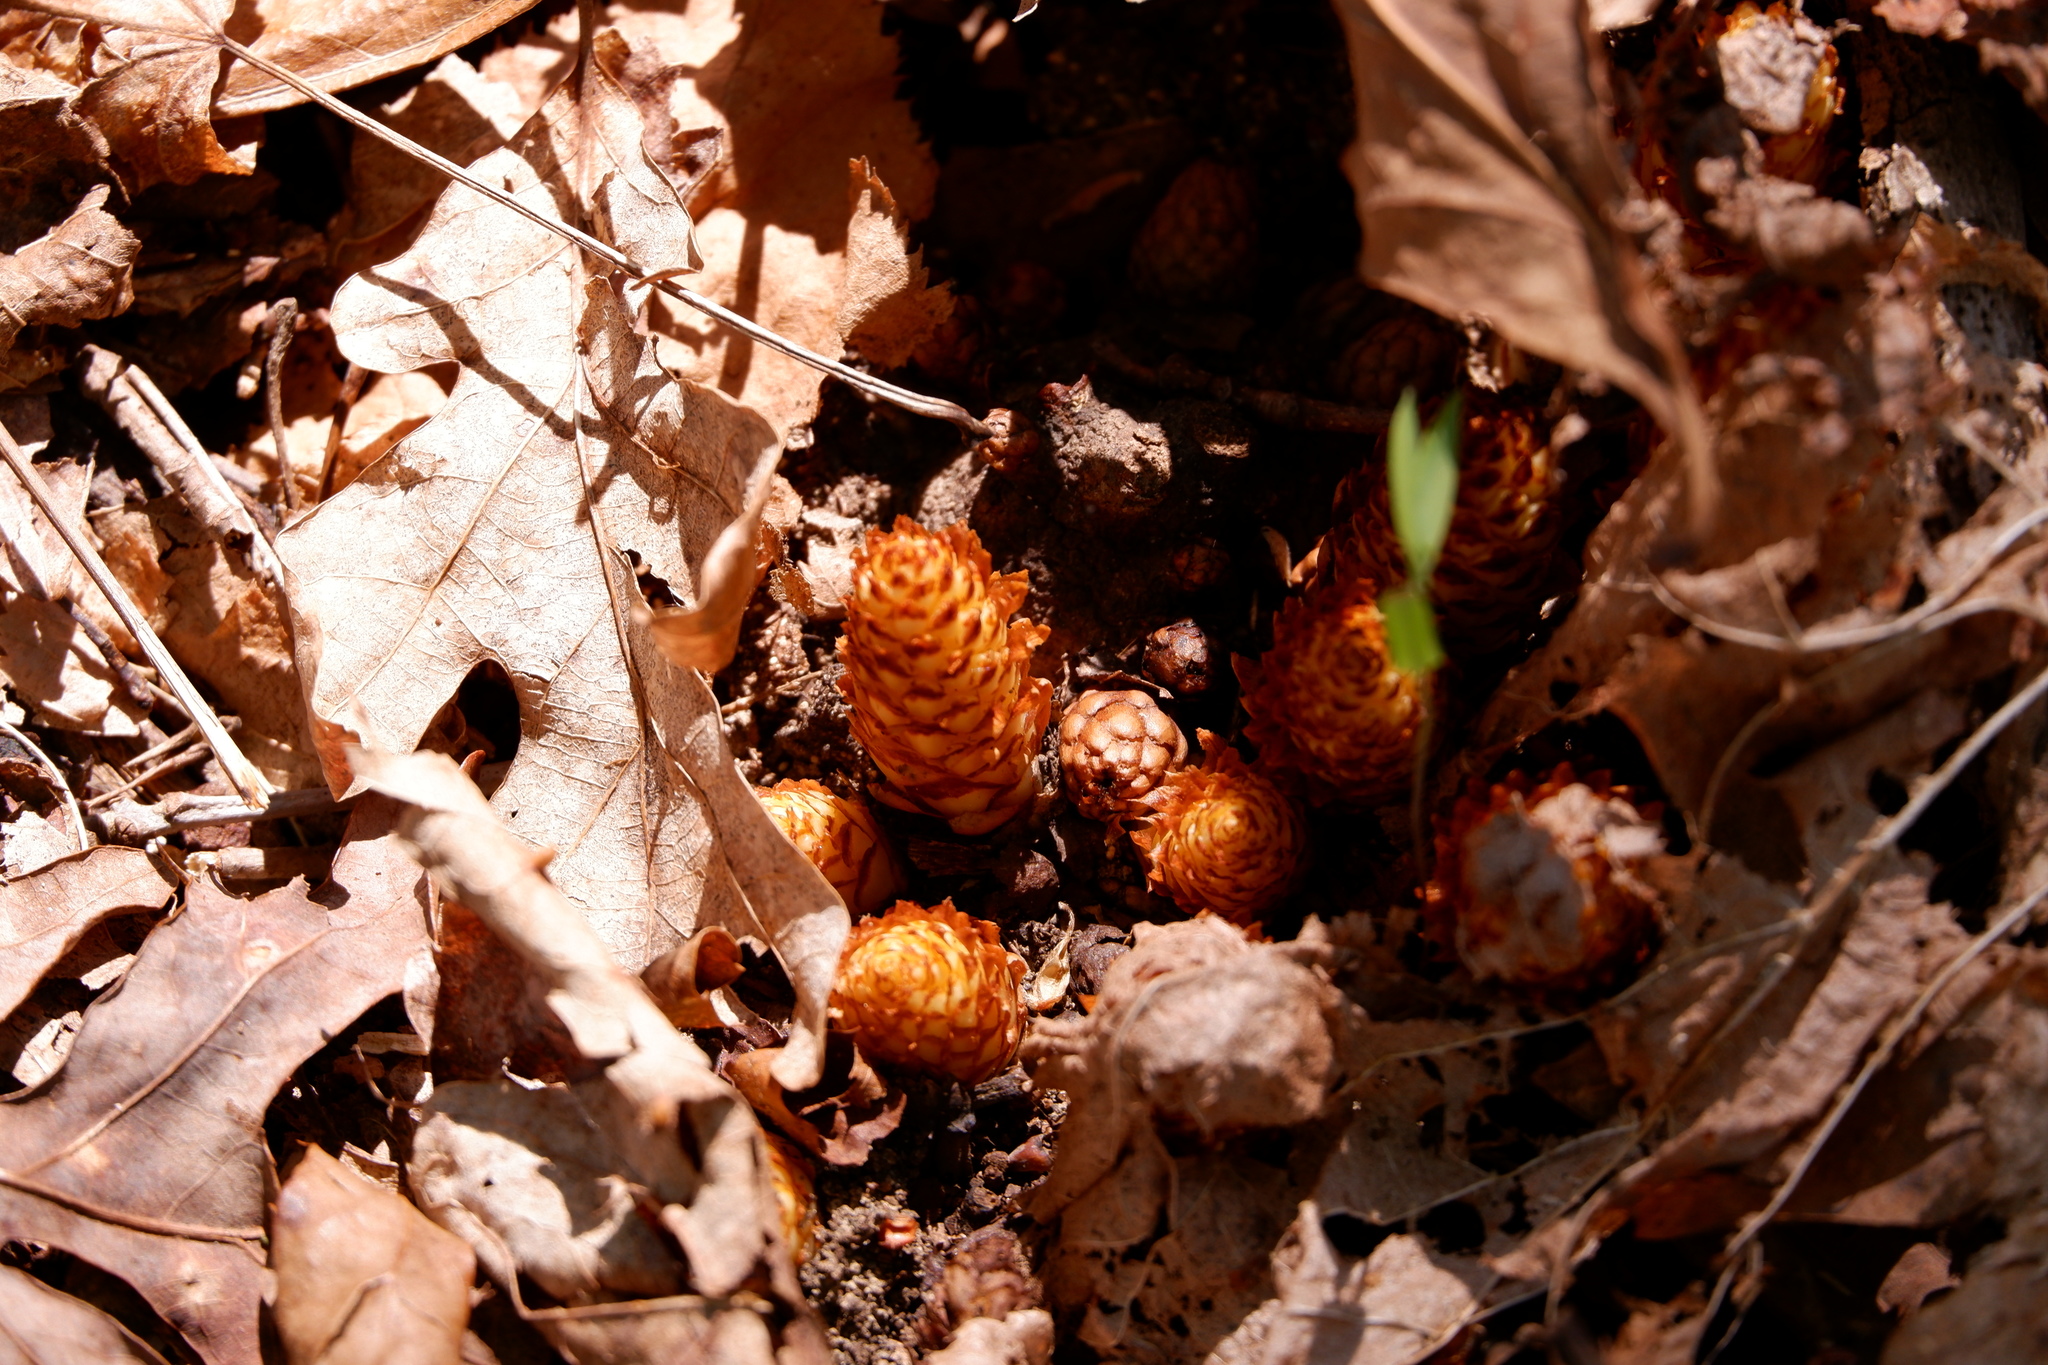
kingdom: Plantae
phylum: Tracheophyta
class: Magnoliopsida
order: Lamiales
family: Orobanchaceae
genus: Conopholis
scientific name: Conopholis americana
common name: American cancer-root
